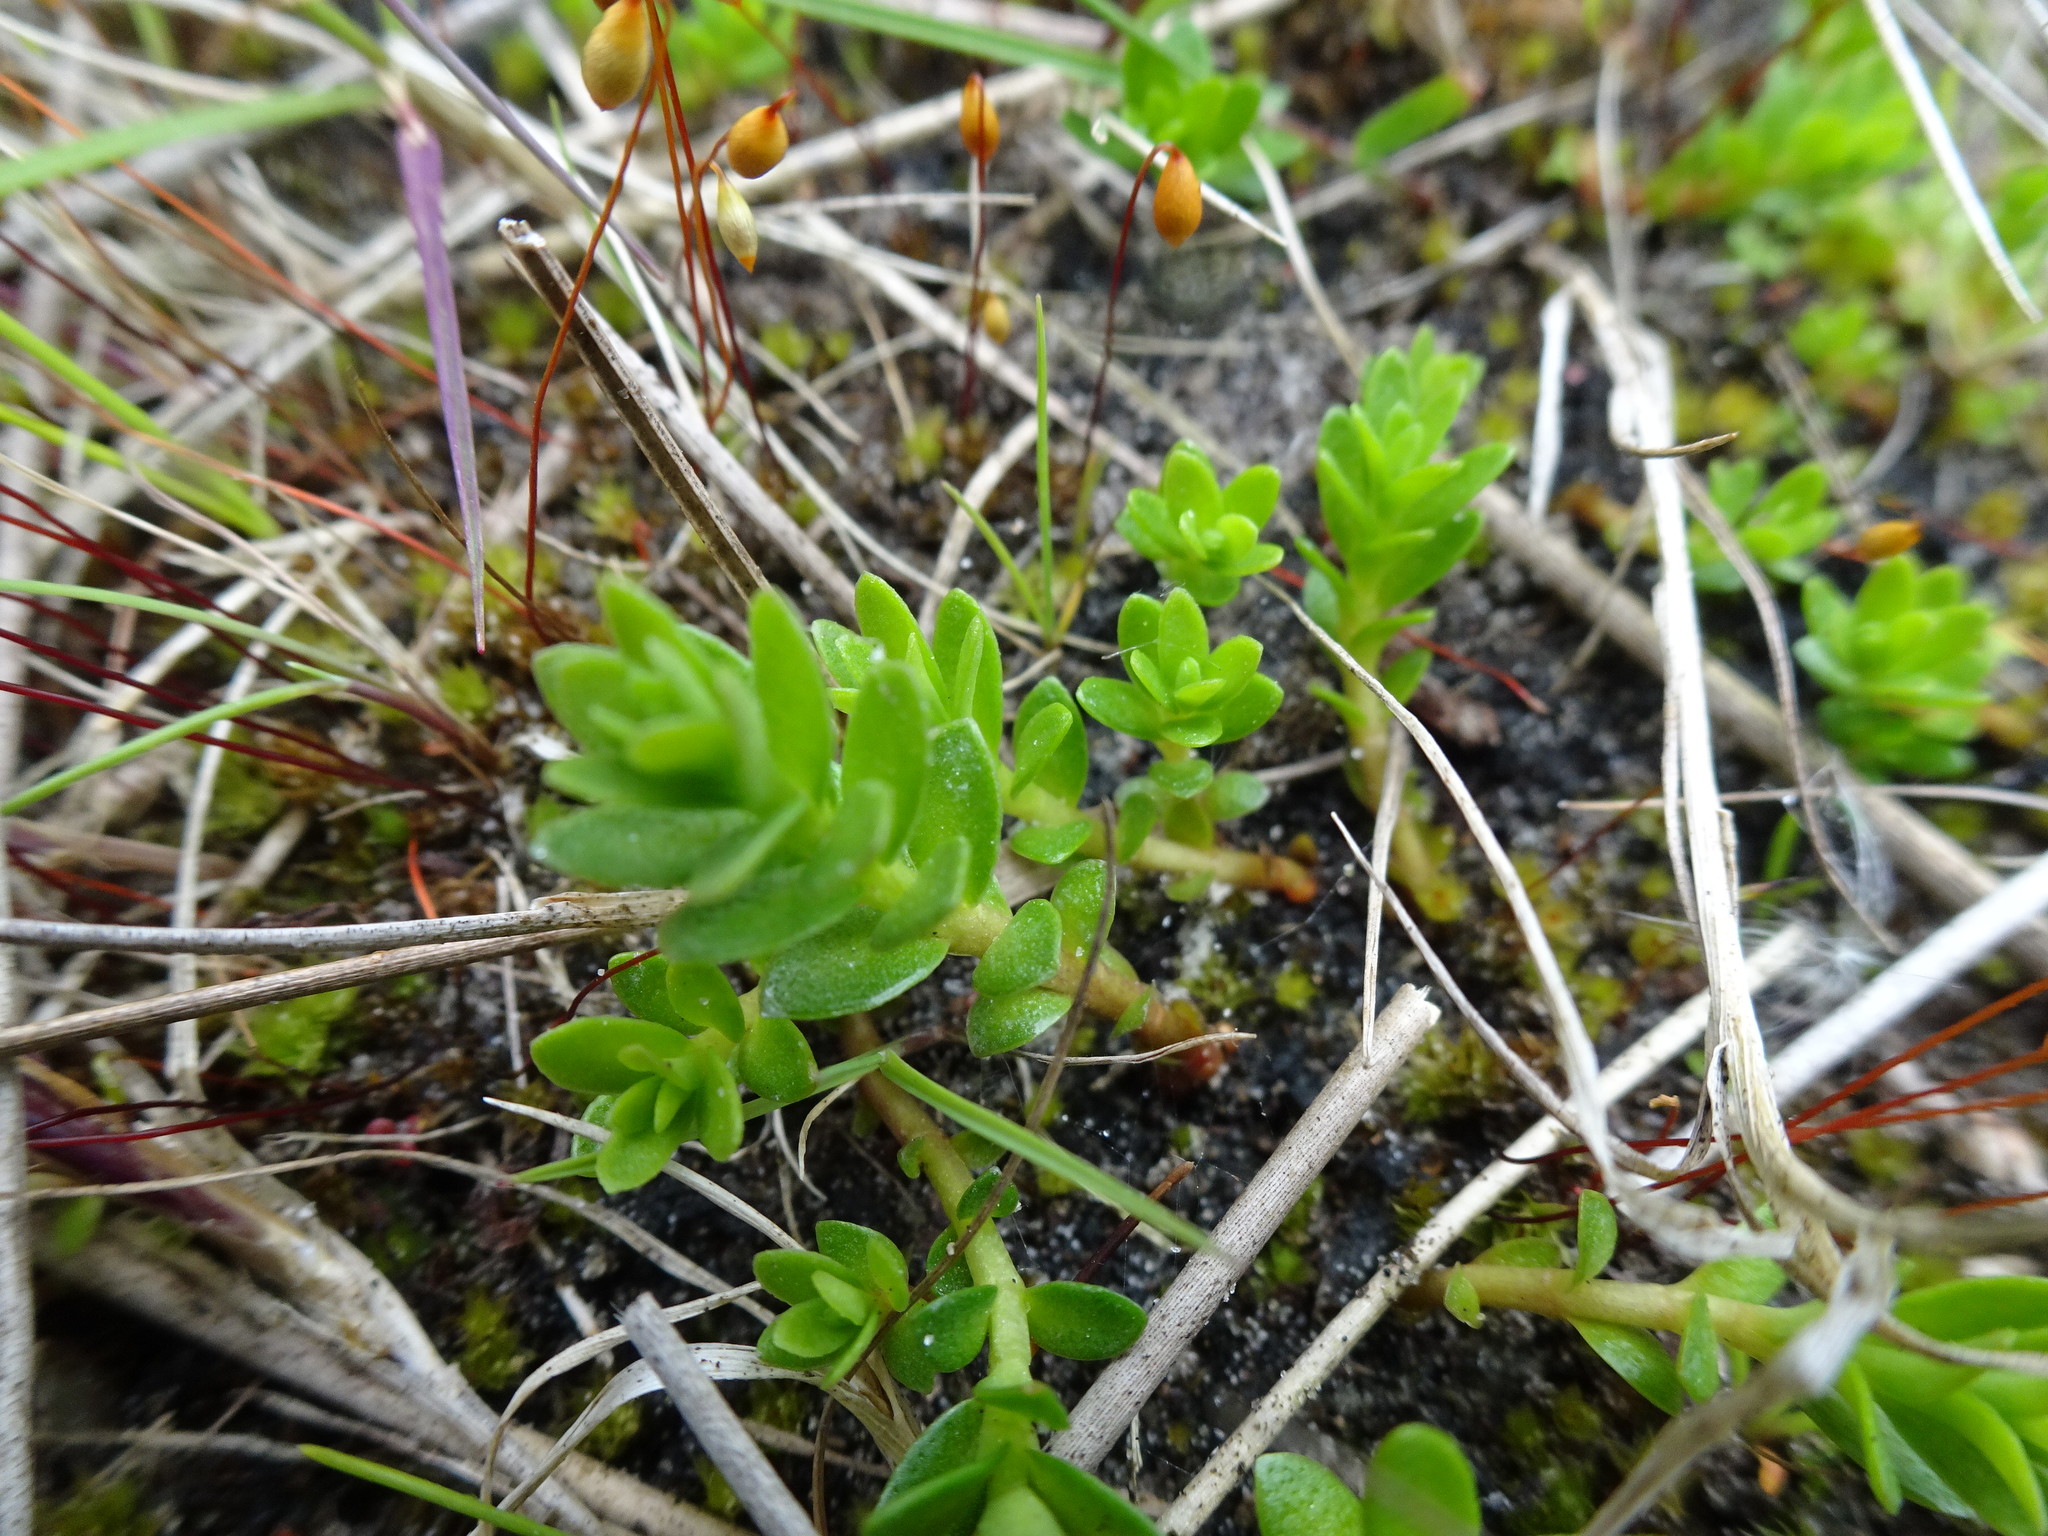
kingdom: Plantae
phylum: Tracheophyta
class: Magnoliopsida
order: Ericales
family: Primulaceae
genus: Lysimachia
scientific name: Lysimachia maritima
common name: Sea milkwort
